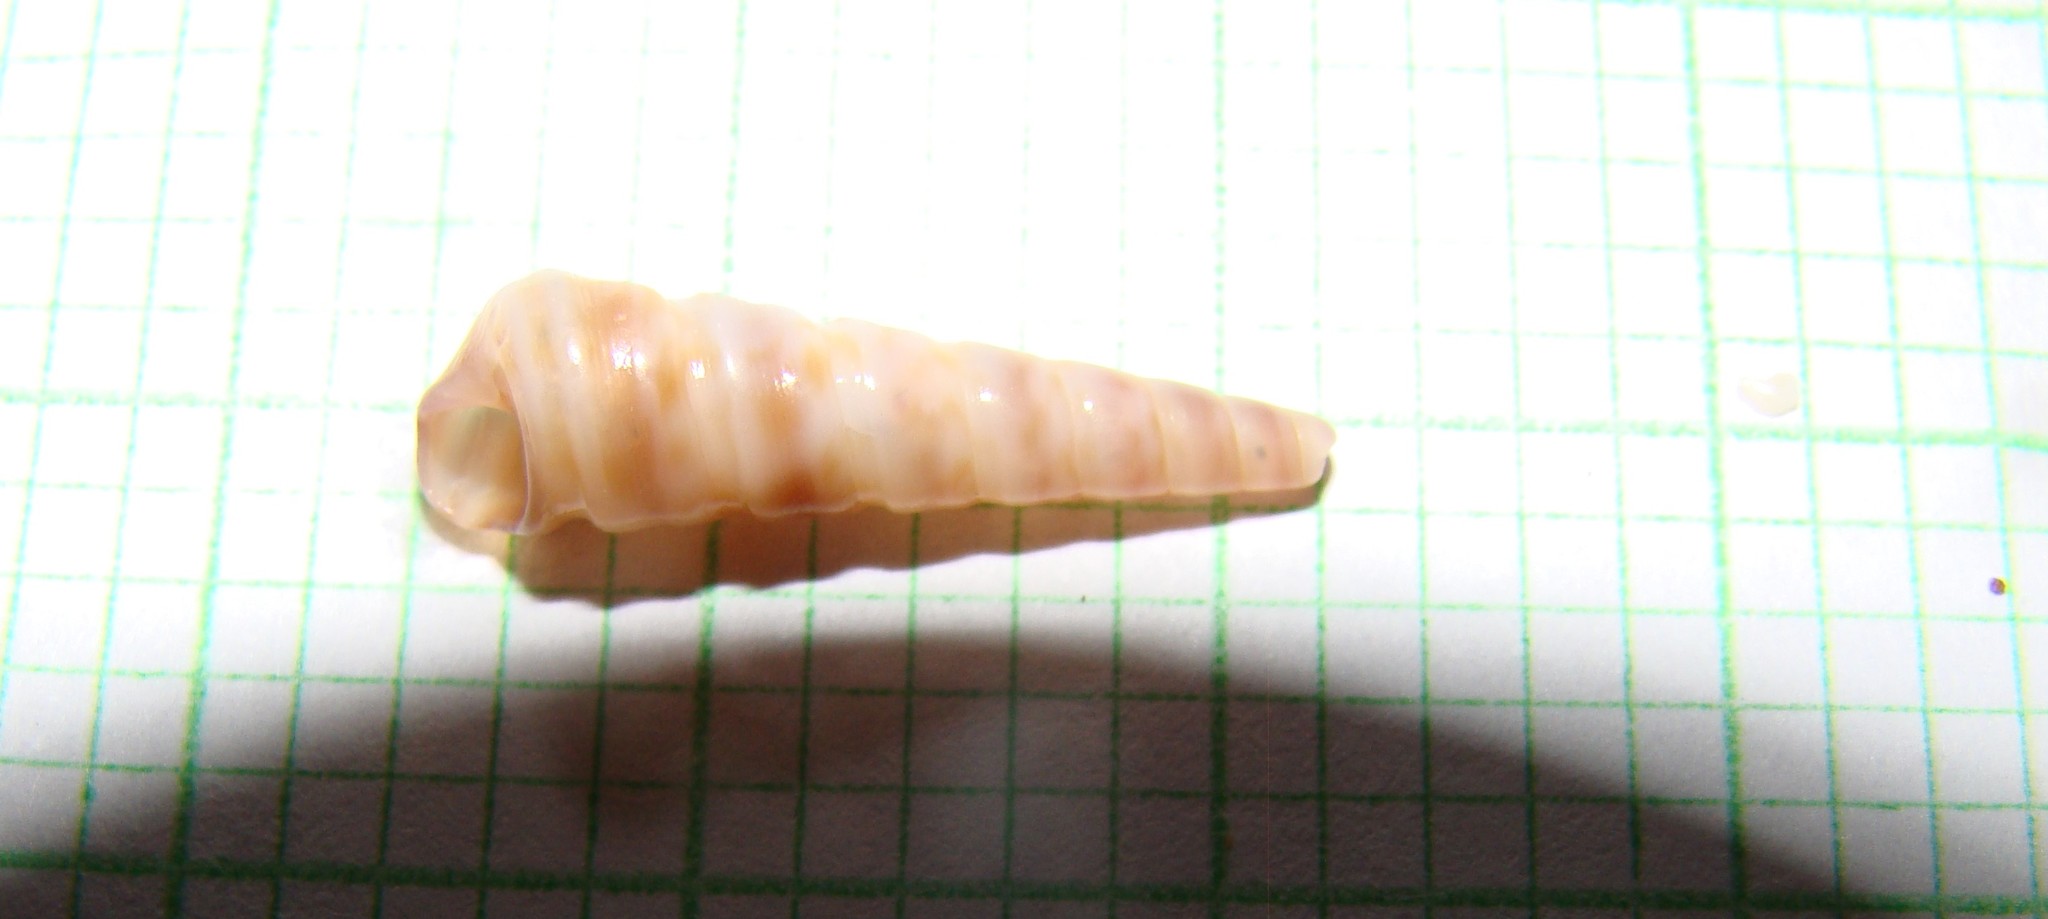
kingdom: Animalia
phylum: Mollusca
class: Gastropoda
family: Turritellidae
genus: Stiracolpus
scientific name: Stiracolpus pagoda
